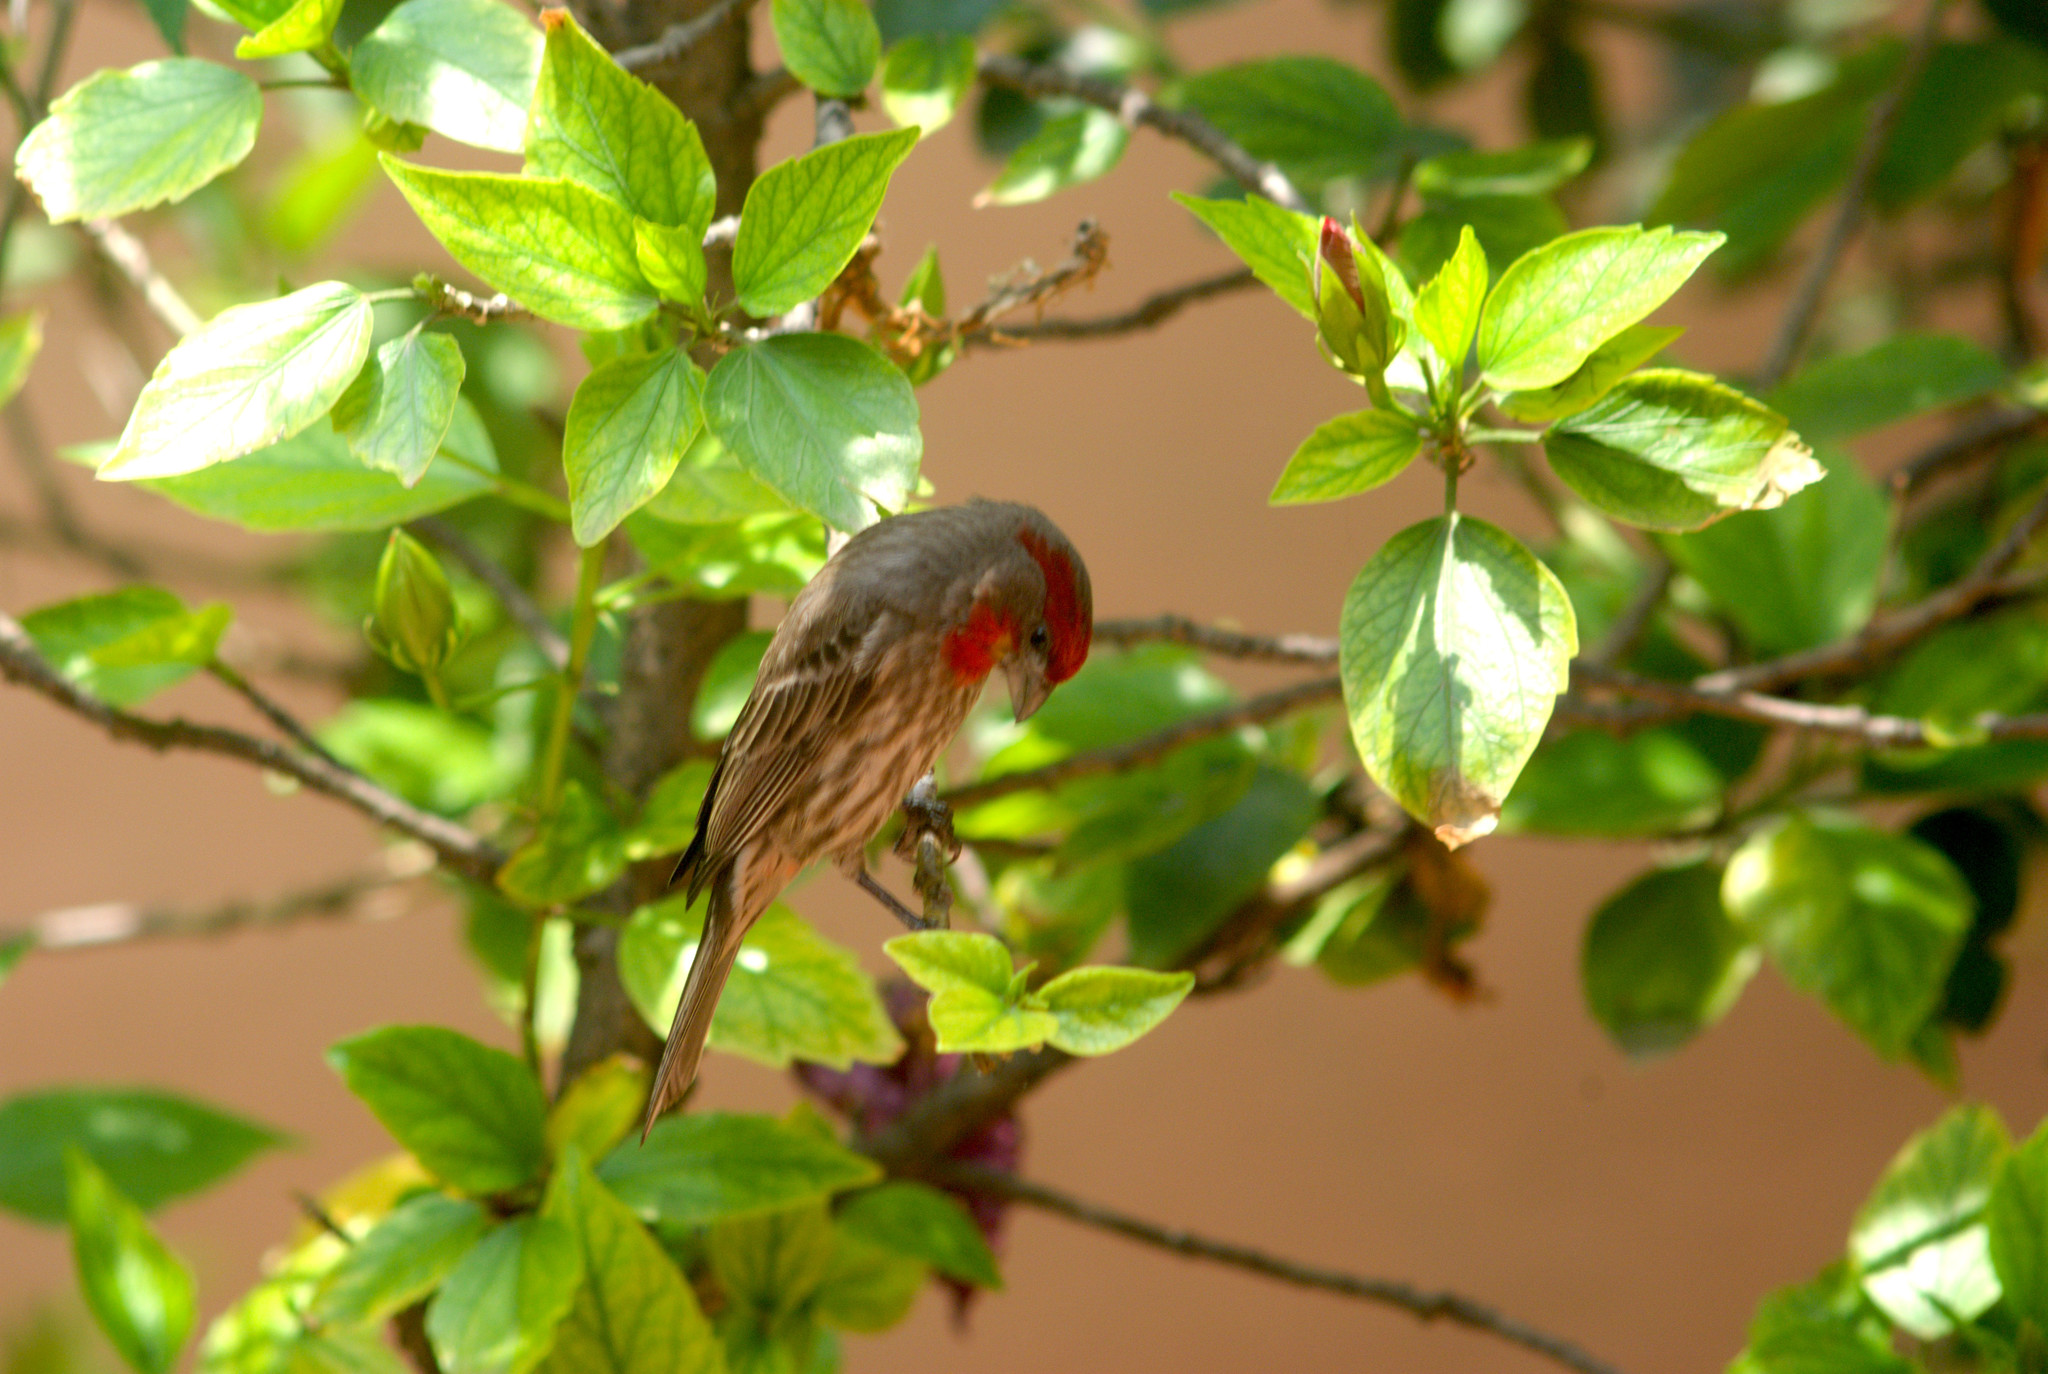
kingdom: Animalia
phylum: Chordata
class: Aves
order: Passeriformes
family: Fringillidae
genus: Haemorhous
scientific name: Haemorhous mexicanus
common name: House finch
